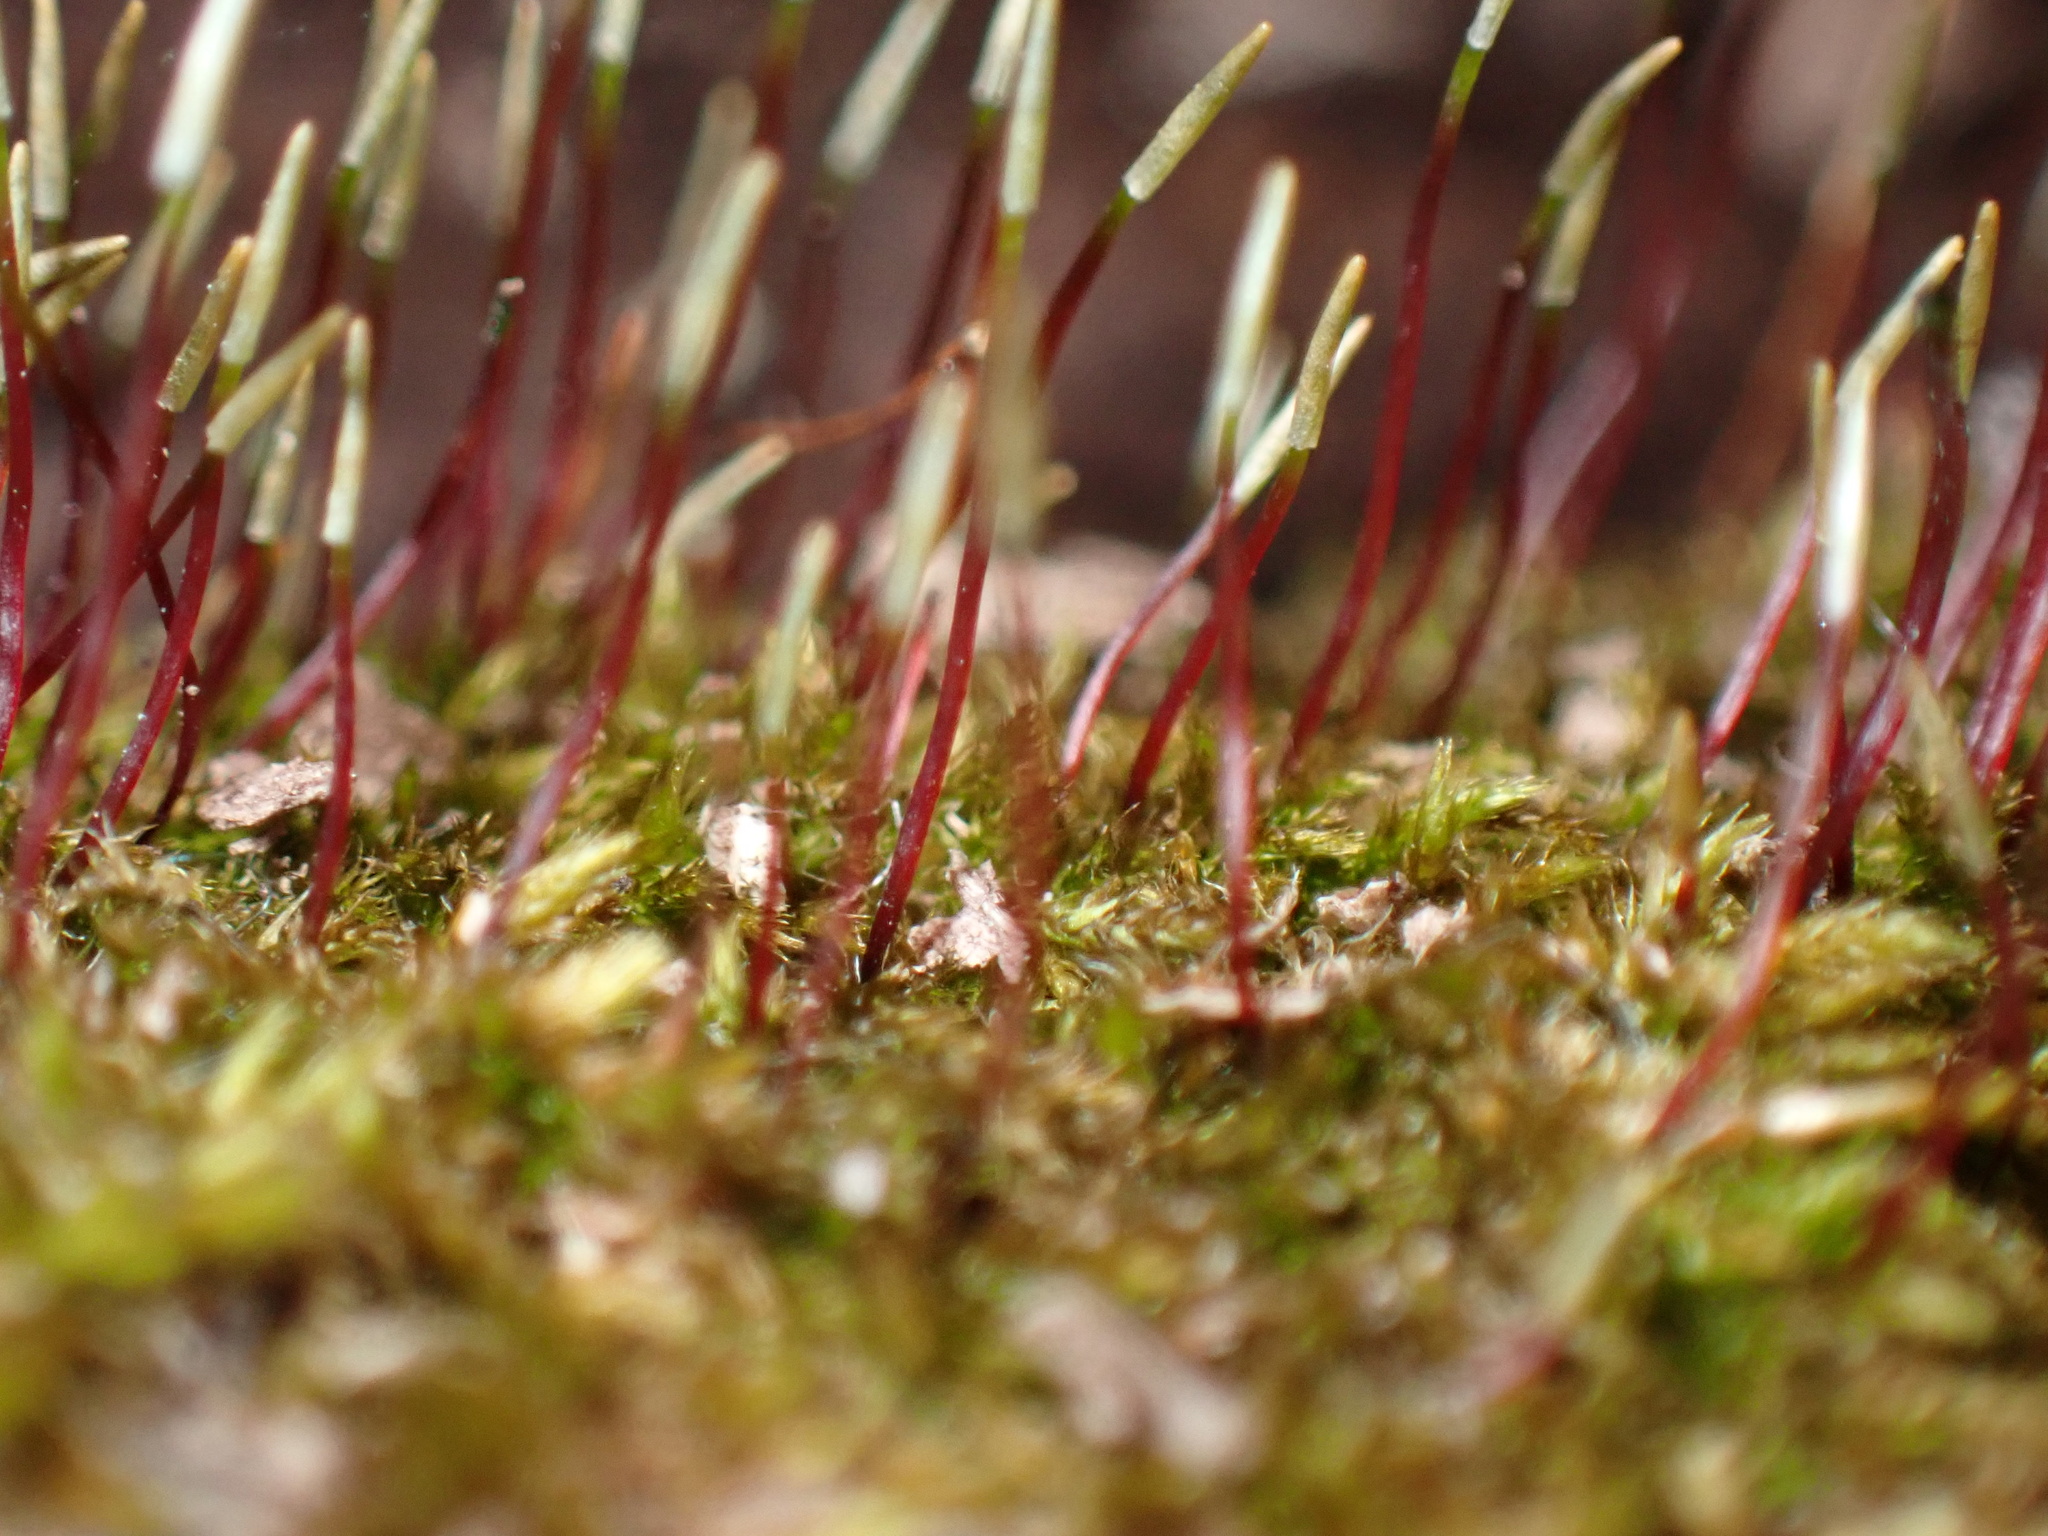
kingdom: Plantae
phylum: Bryophyta
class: Bryopsida
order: Hypnales
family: Amblystegiaceae
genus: Amblystegium
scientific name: Amblystegium serpens
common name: Jurkatzka's feather moss
